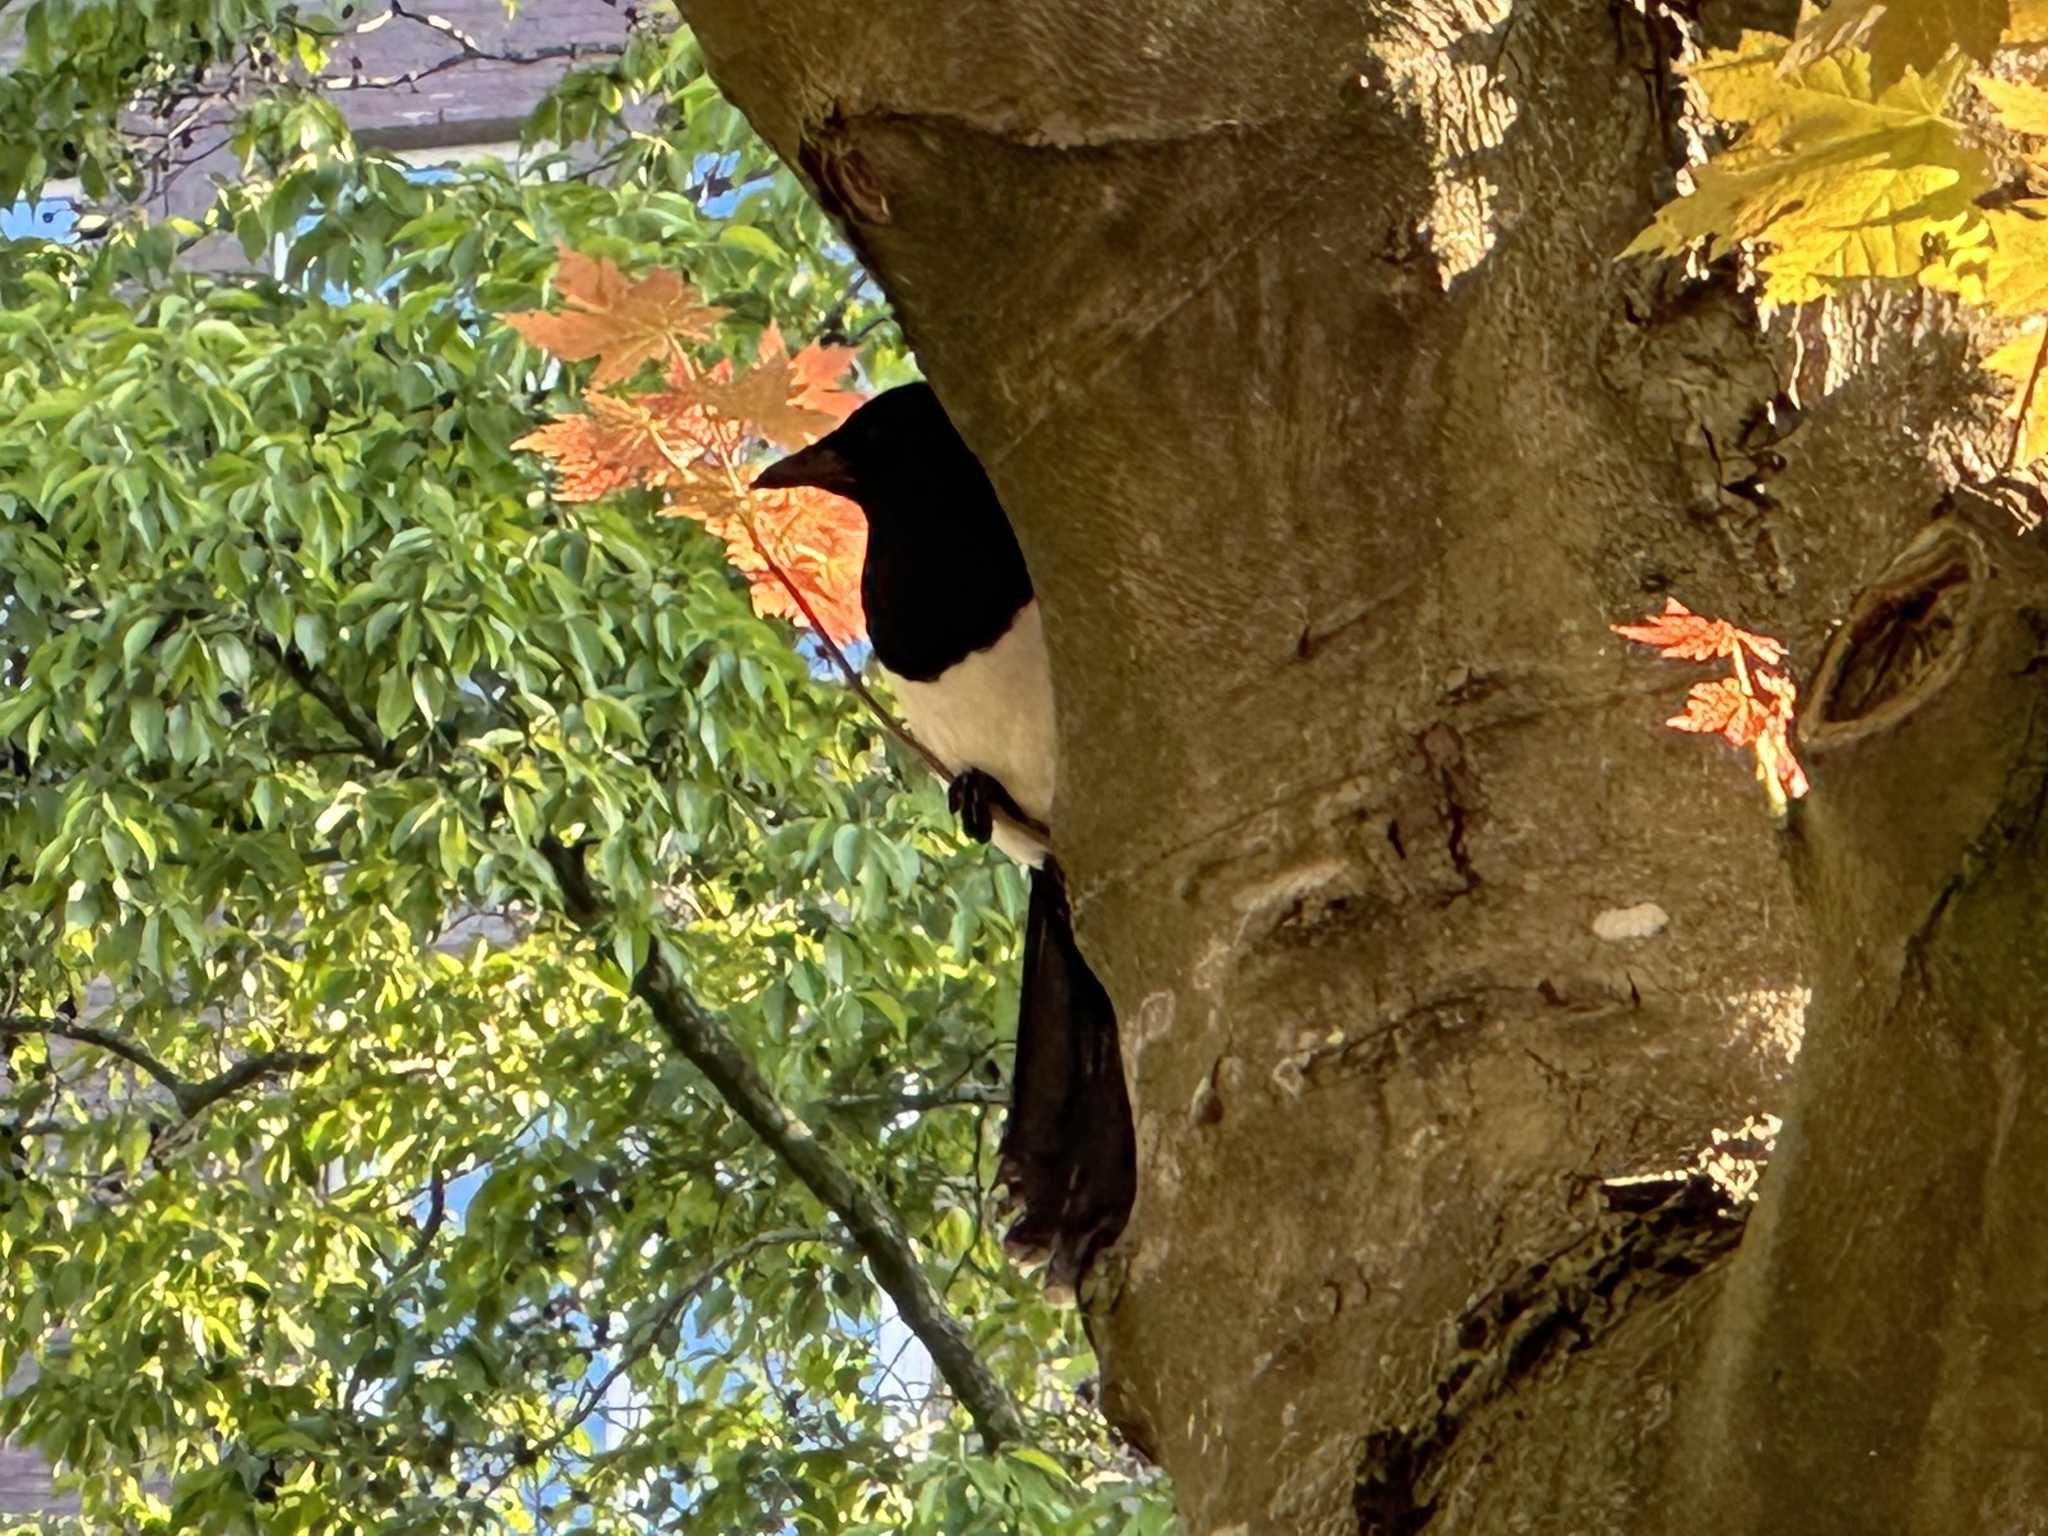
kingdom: Animalia
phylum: Chordata
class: Aves
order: Passeriformes
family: Corvidae
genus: Pica
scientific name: Pica pica
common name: Eurasian magpie
